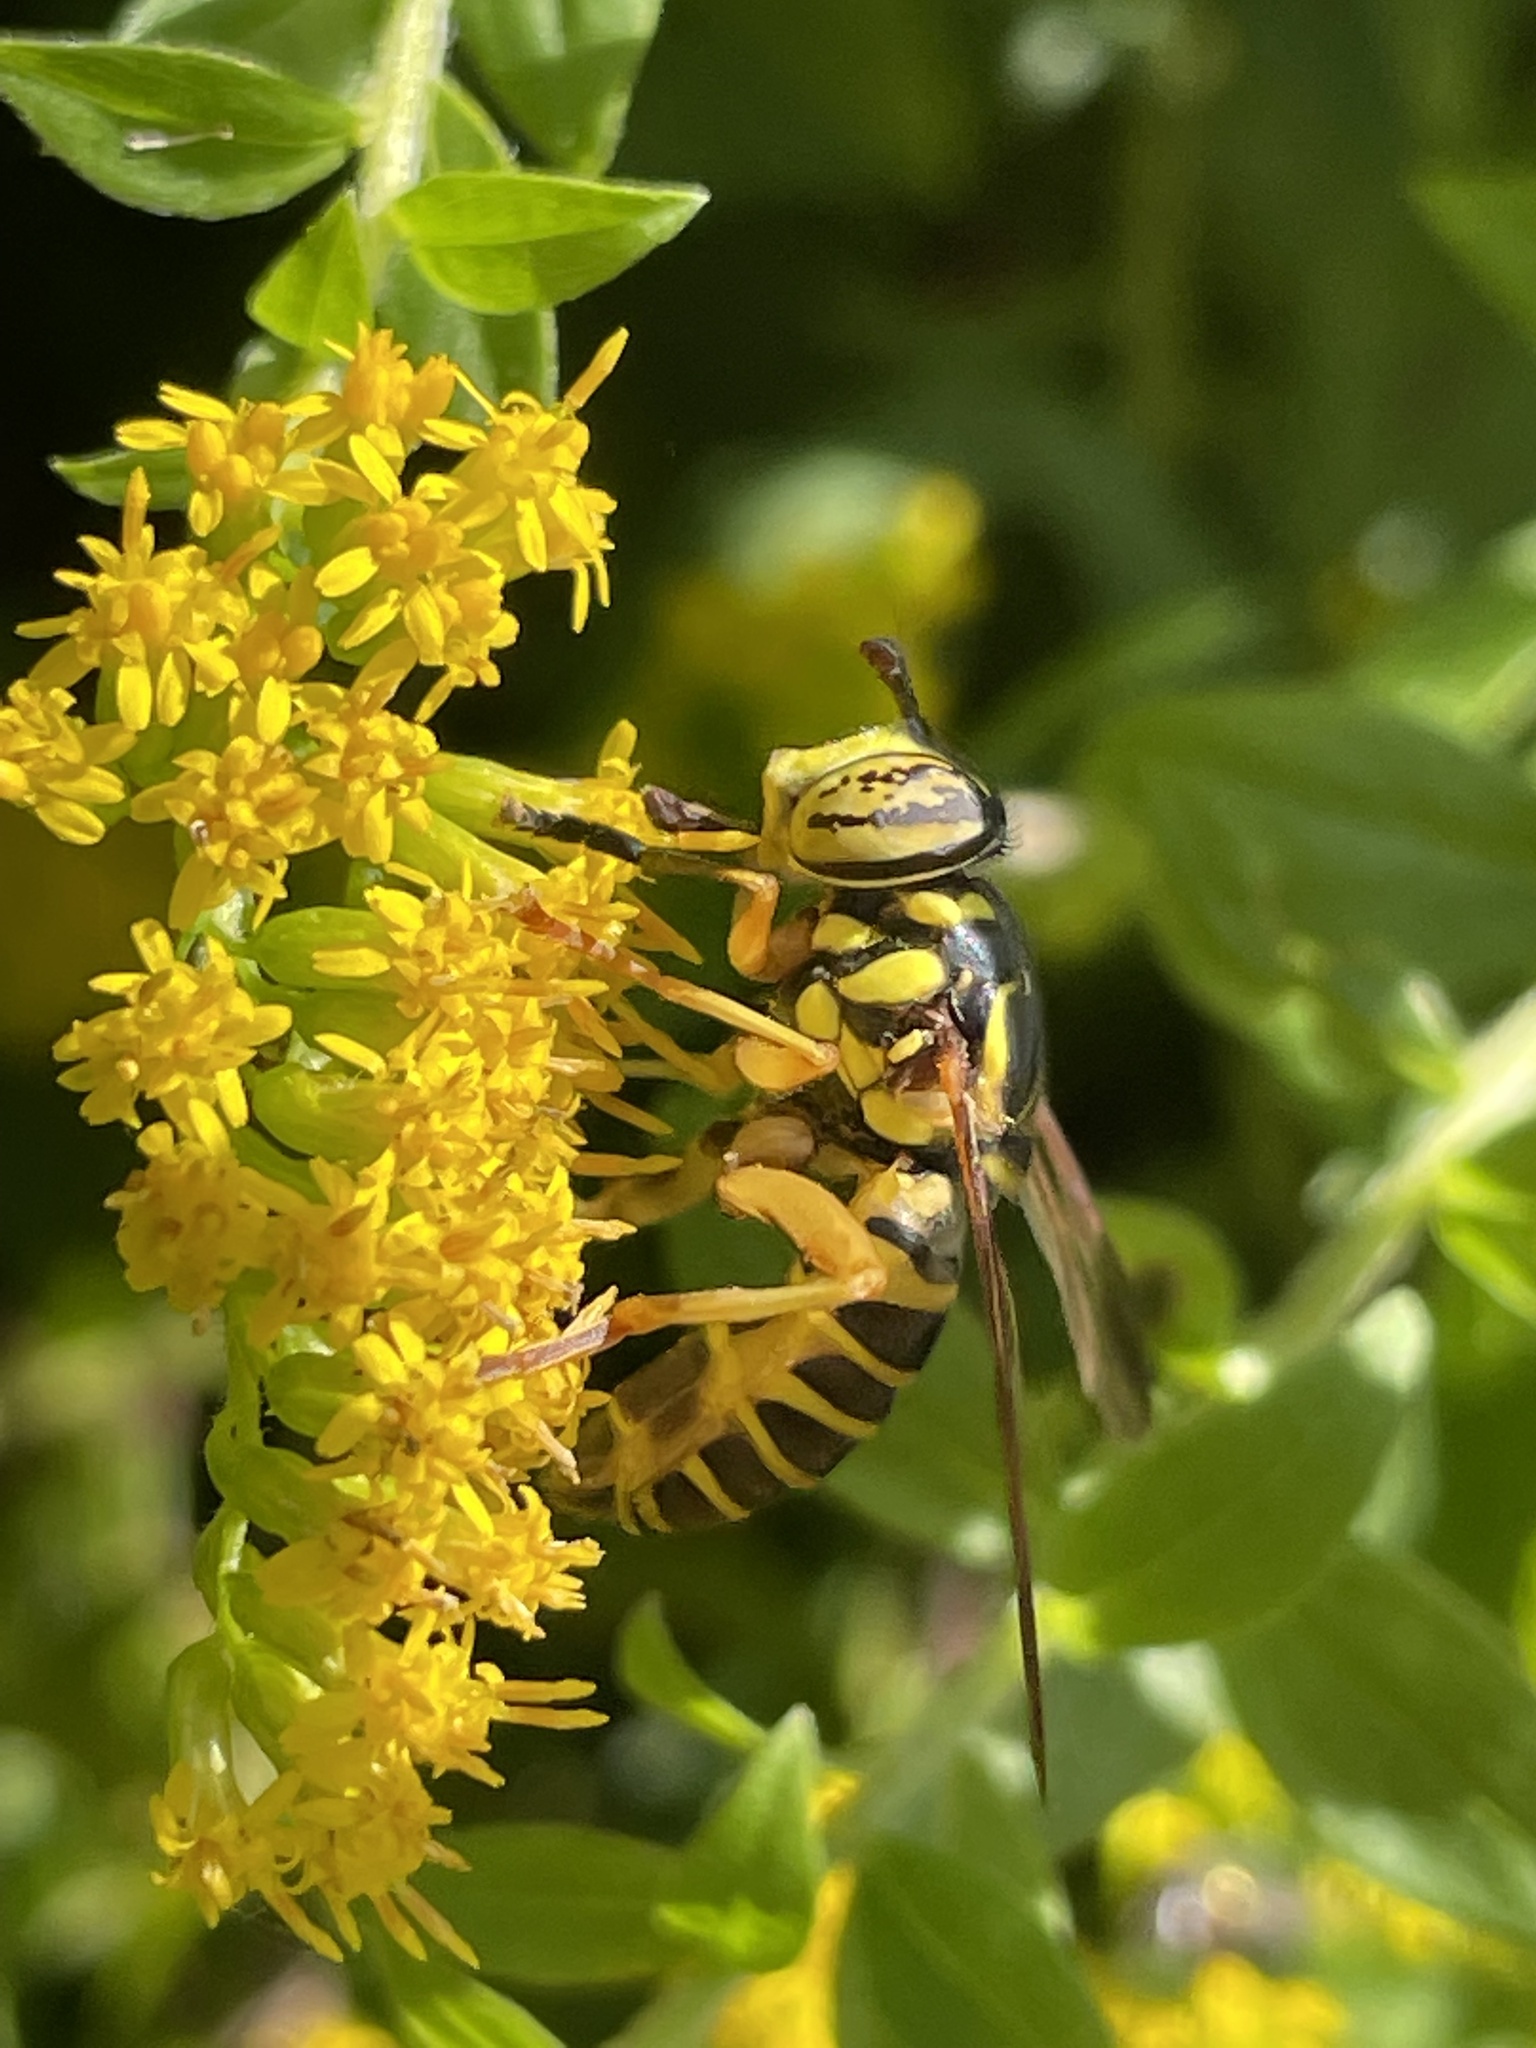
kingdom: Animalia
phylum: Arthropoda
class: Insecta
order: Diptera
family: Syrphidae
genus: Spilomyia
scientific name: Spilomyia longicornis
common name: Eastern hornet fly
